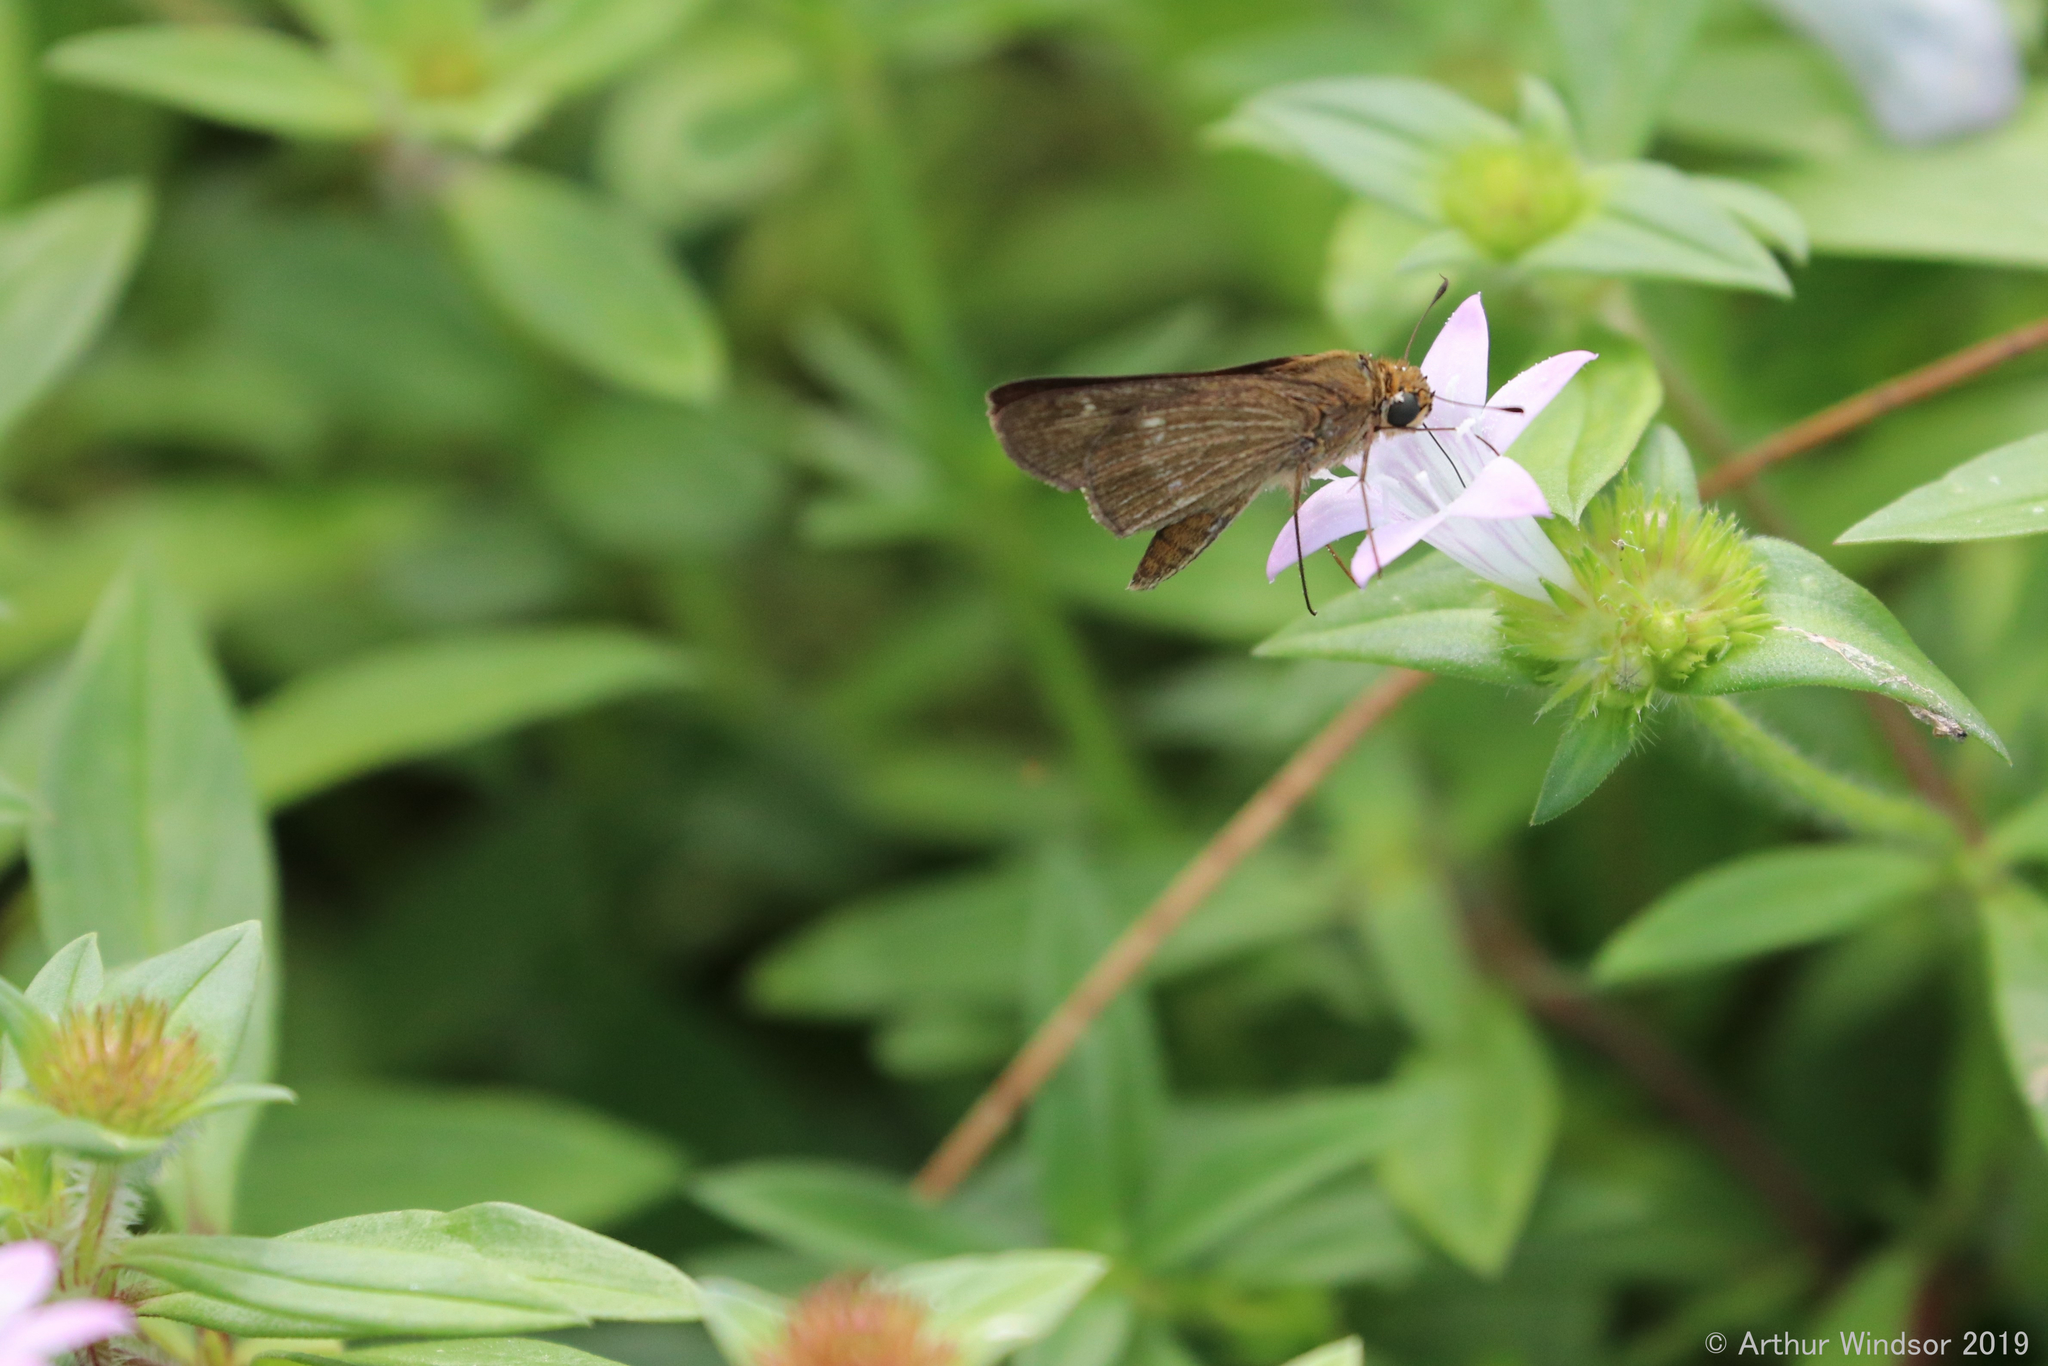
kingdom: Animalia
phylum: Arthropoda
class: Insecta
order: Lepidoptera
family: Hesperiidae
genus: Panoquina
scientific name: Panoquina ocola
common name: Ocola skipper
